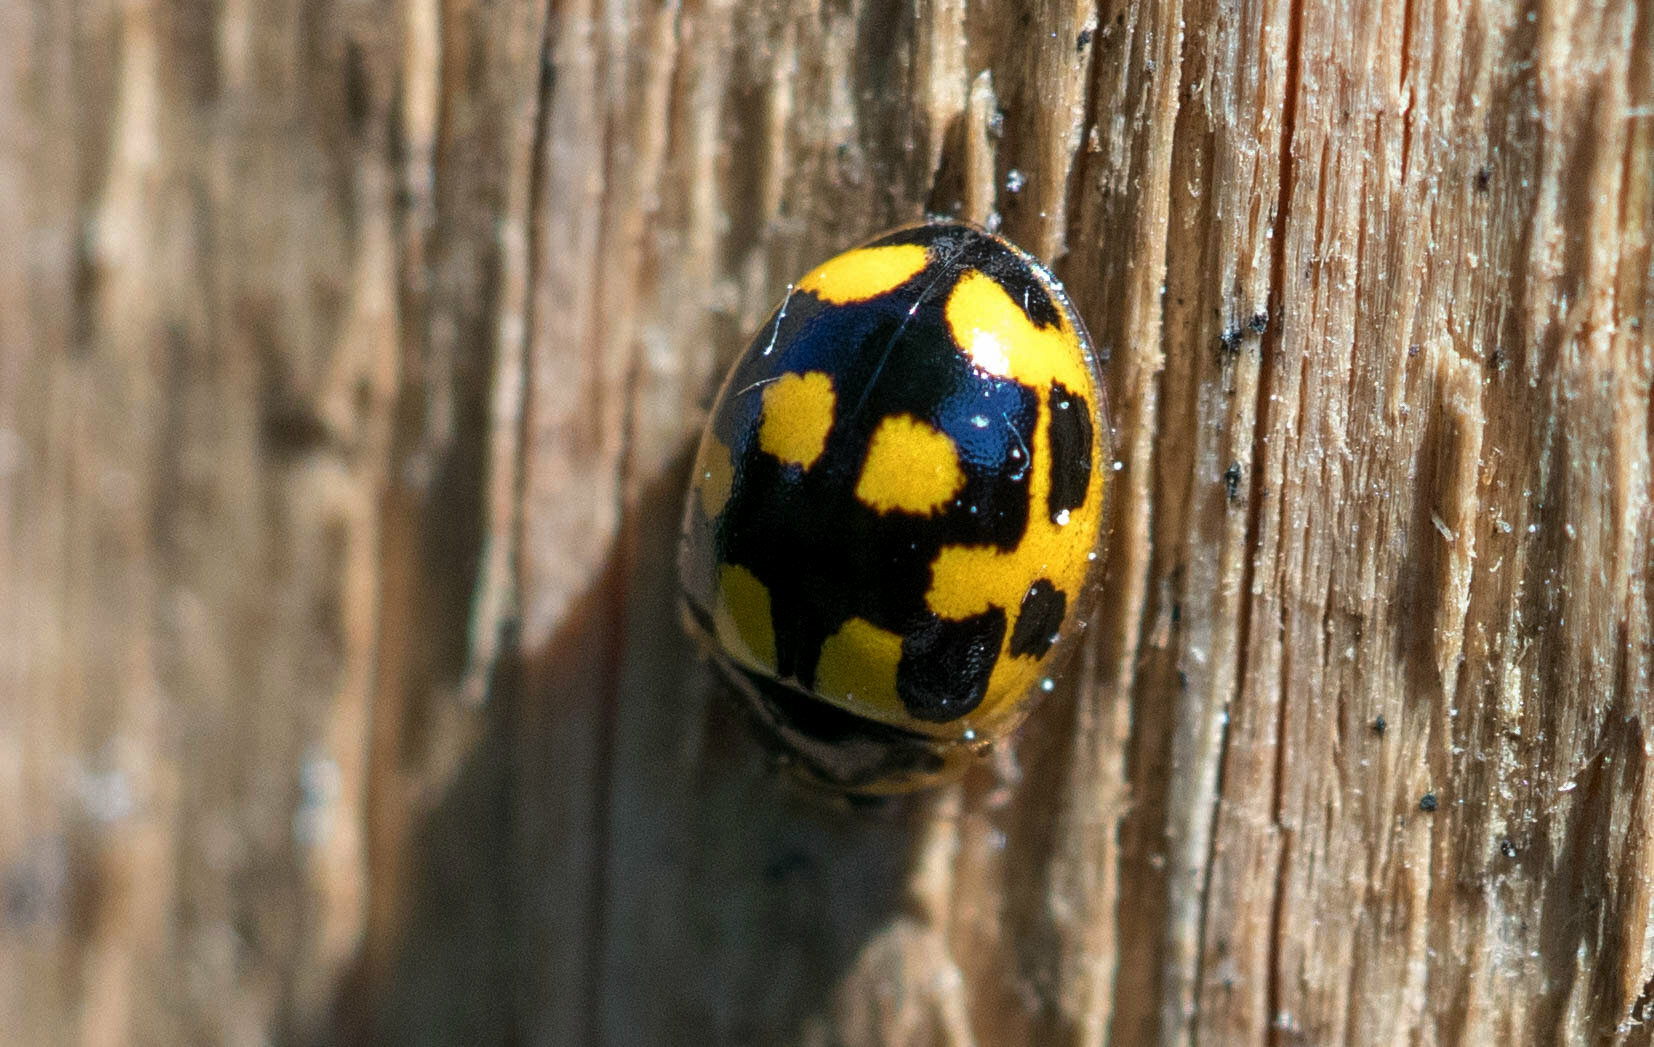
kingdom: Animalia
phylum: Arthropoda
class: Insecta
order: Coleoptera
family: Coccinellidae
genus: Propylaea
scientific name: Propylaea quatuordecimpunctata
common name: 14-spotted ladybird beetle
